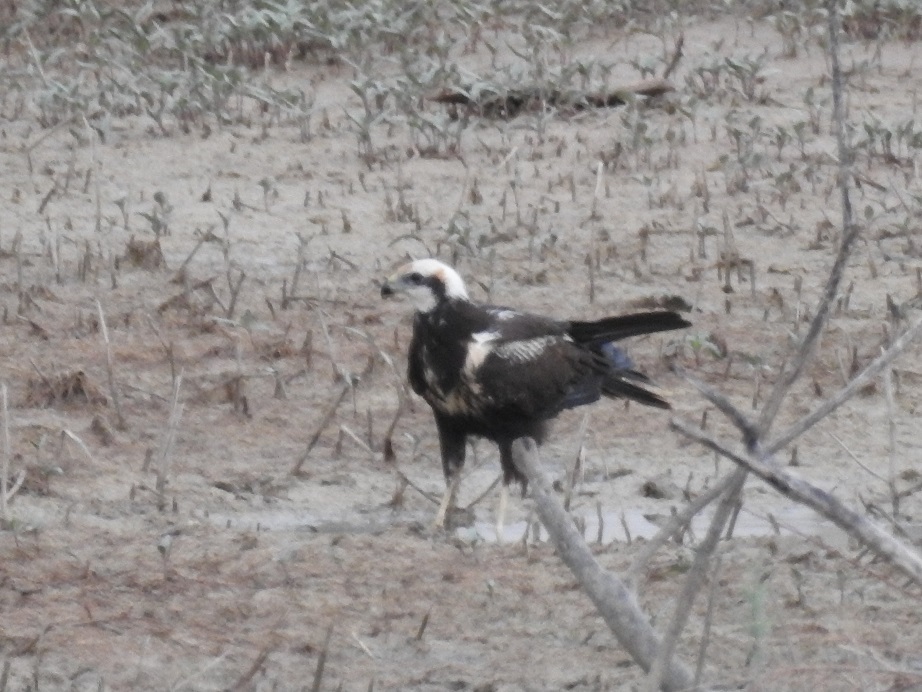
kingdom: Animalia
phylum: Chordata
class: Aves
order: Accipitriformes
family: Accipitridae
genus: Circus
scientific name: Circus aeruginosus
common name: Western marsh harrier
